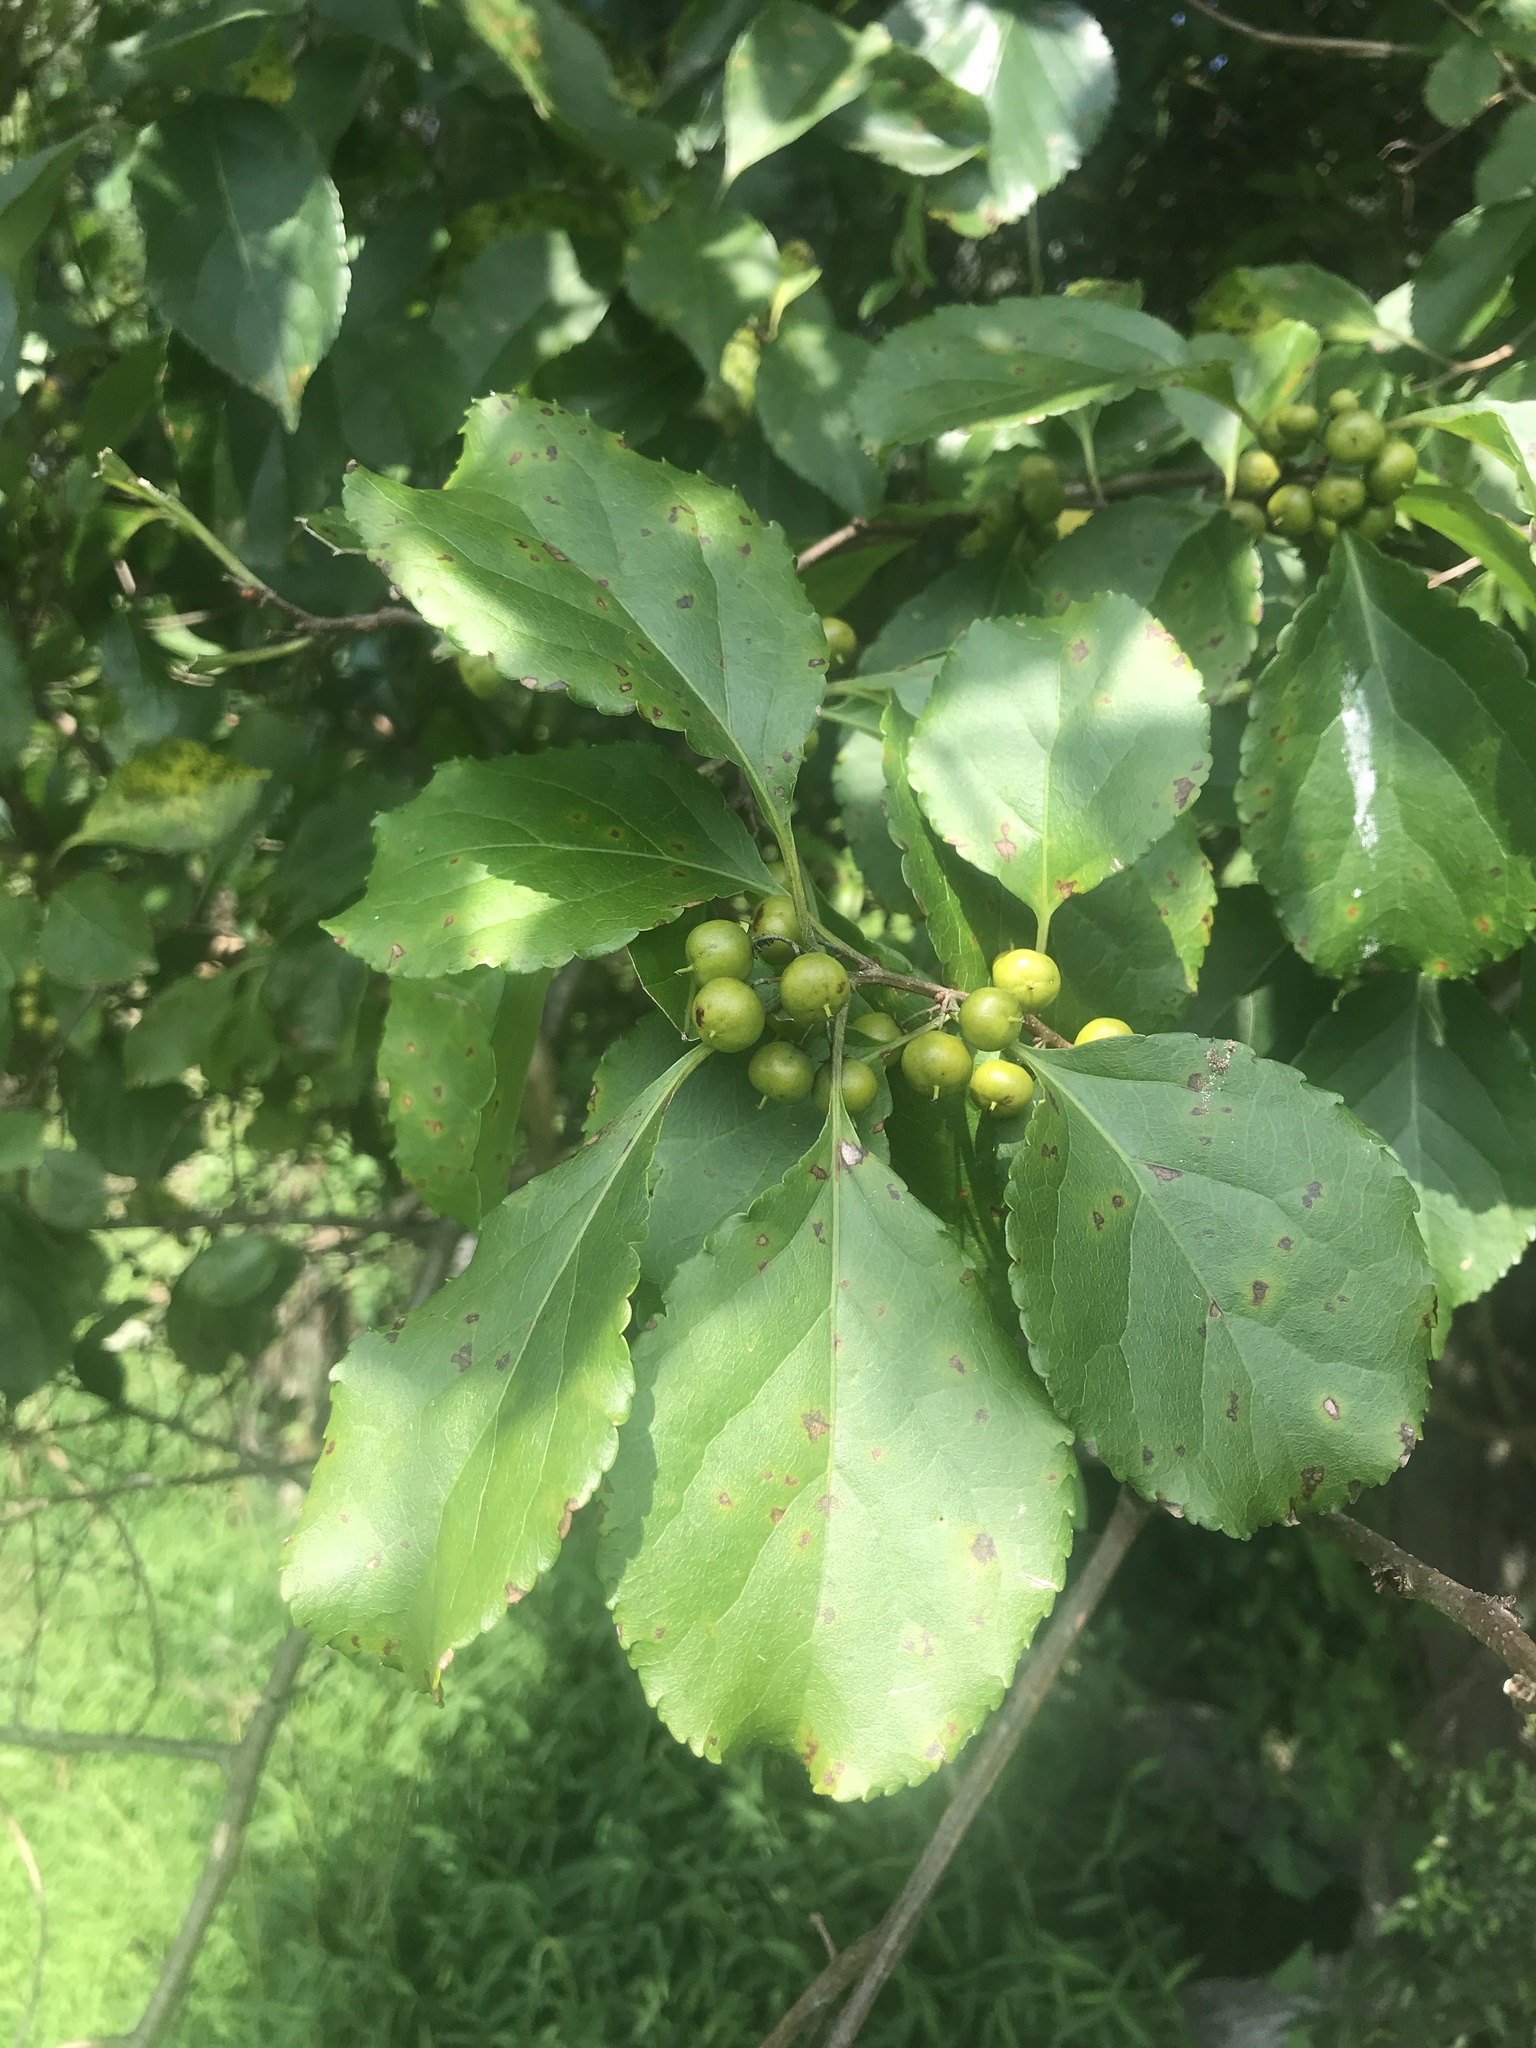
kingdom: Plantae
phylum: Tracheophyta
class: Magnoliopsida
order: Celastrales
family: Celastraceae
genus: Celastrus
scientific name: Celastrus orbiculatus
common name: Oriental bittersweet
